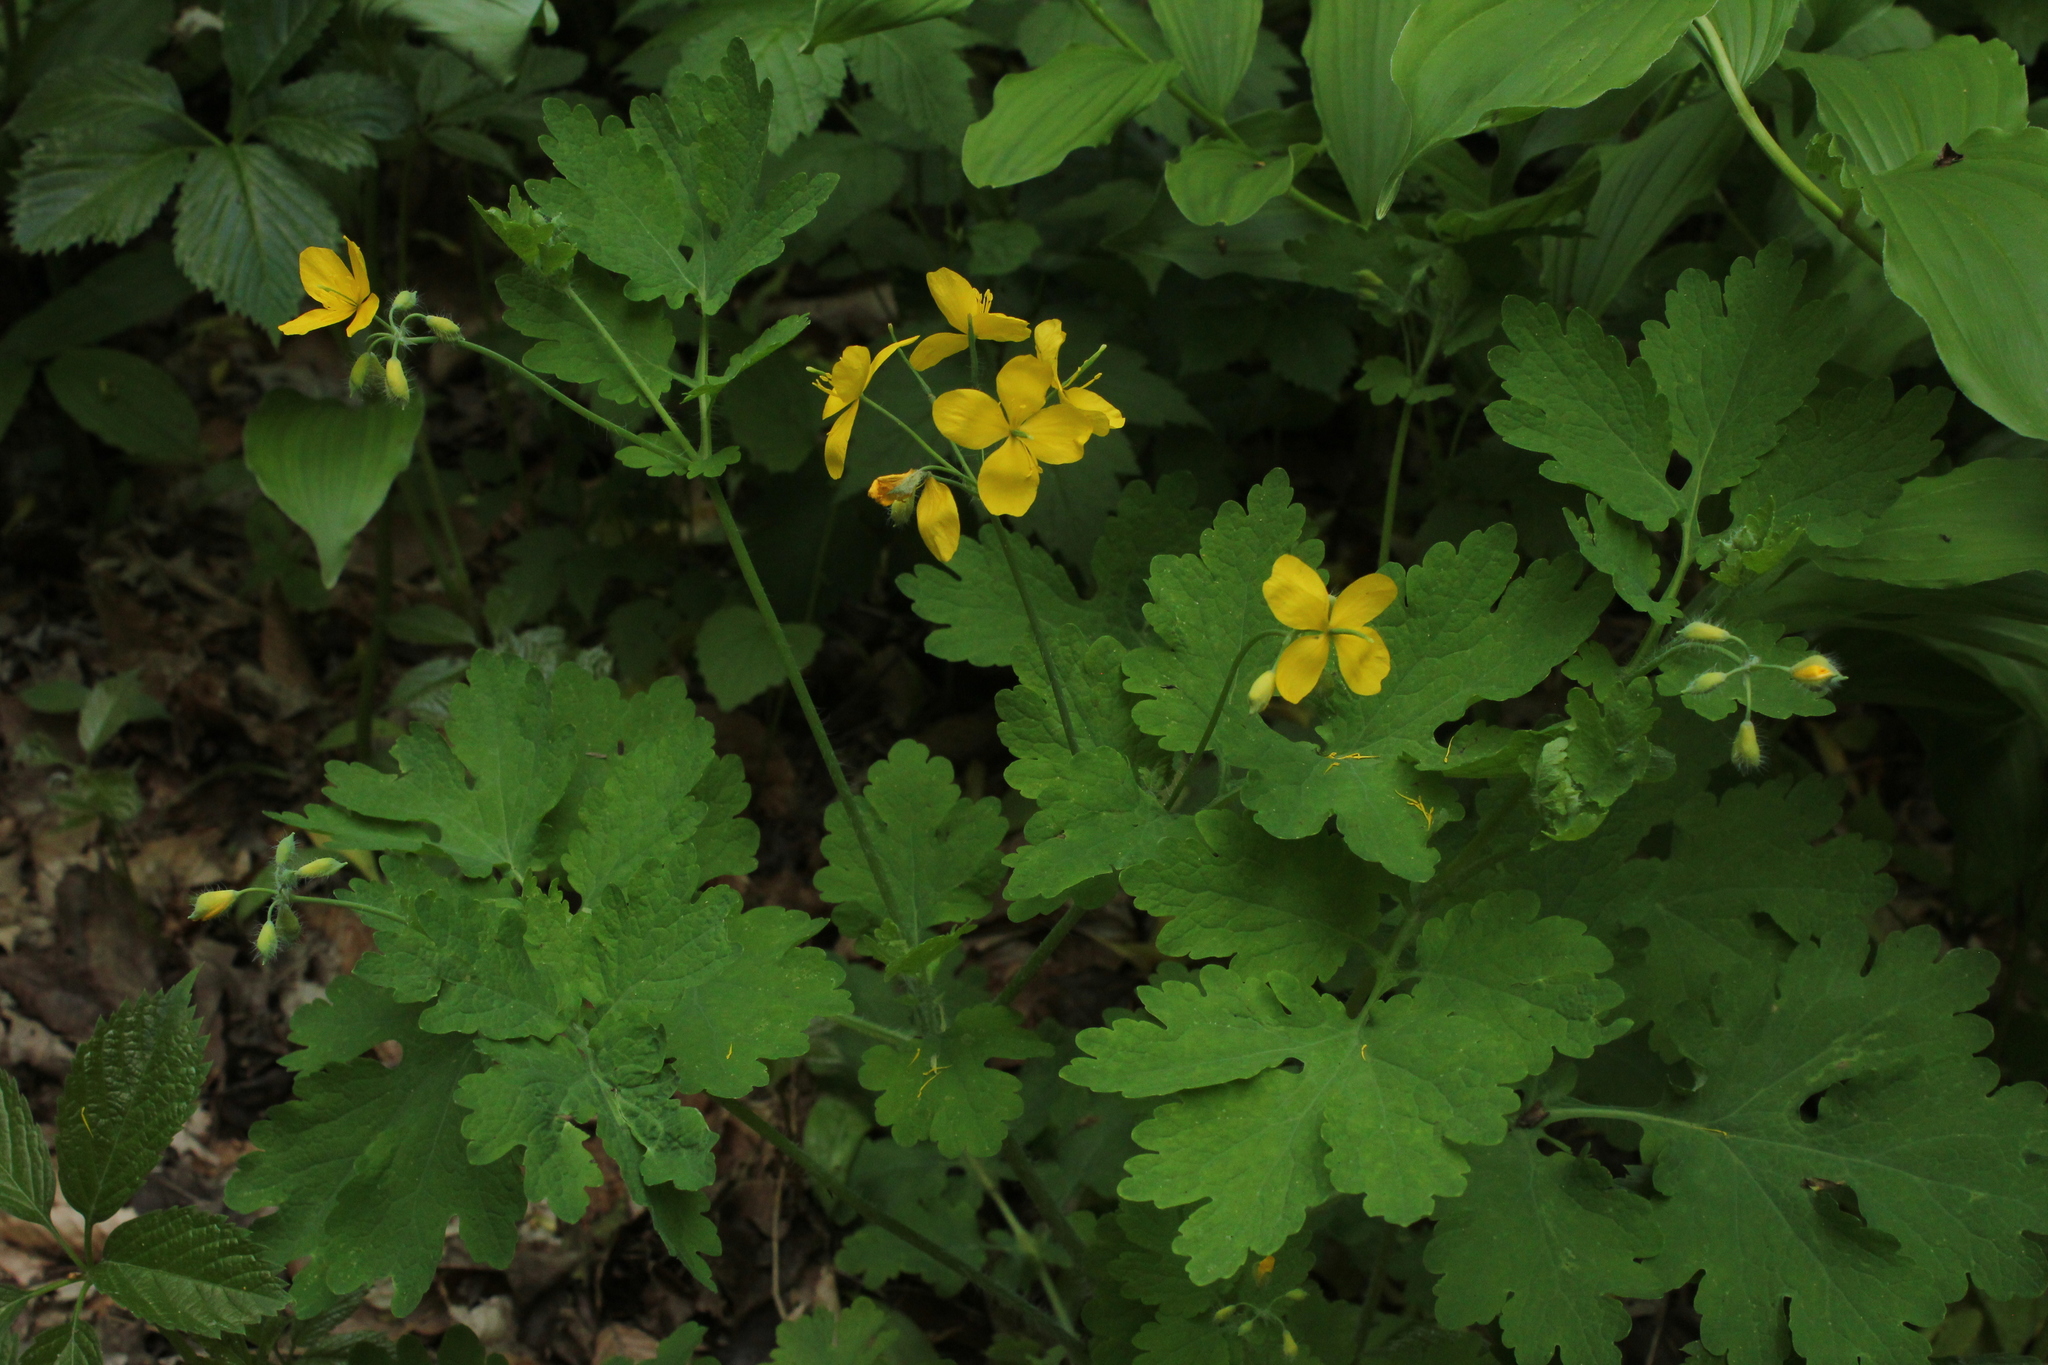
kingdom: Plantae
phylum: Tracheophyta
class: Magnoliopsida
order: Ranunculales
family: Papaveraceae
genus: Chelidonium
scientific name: Chelidonium majus
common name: Greater celandine
